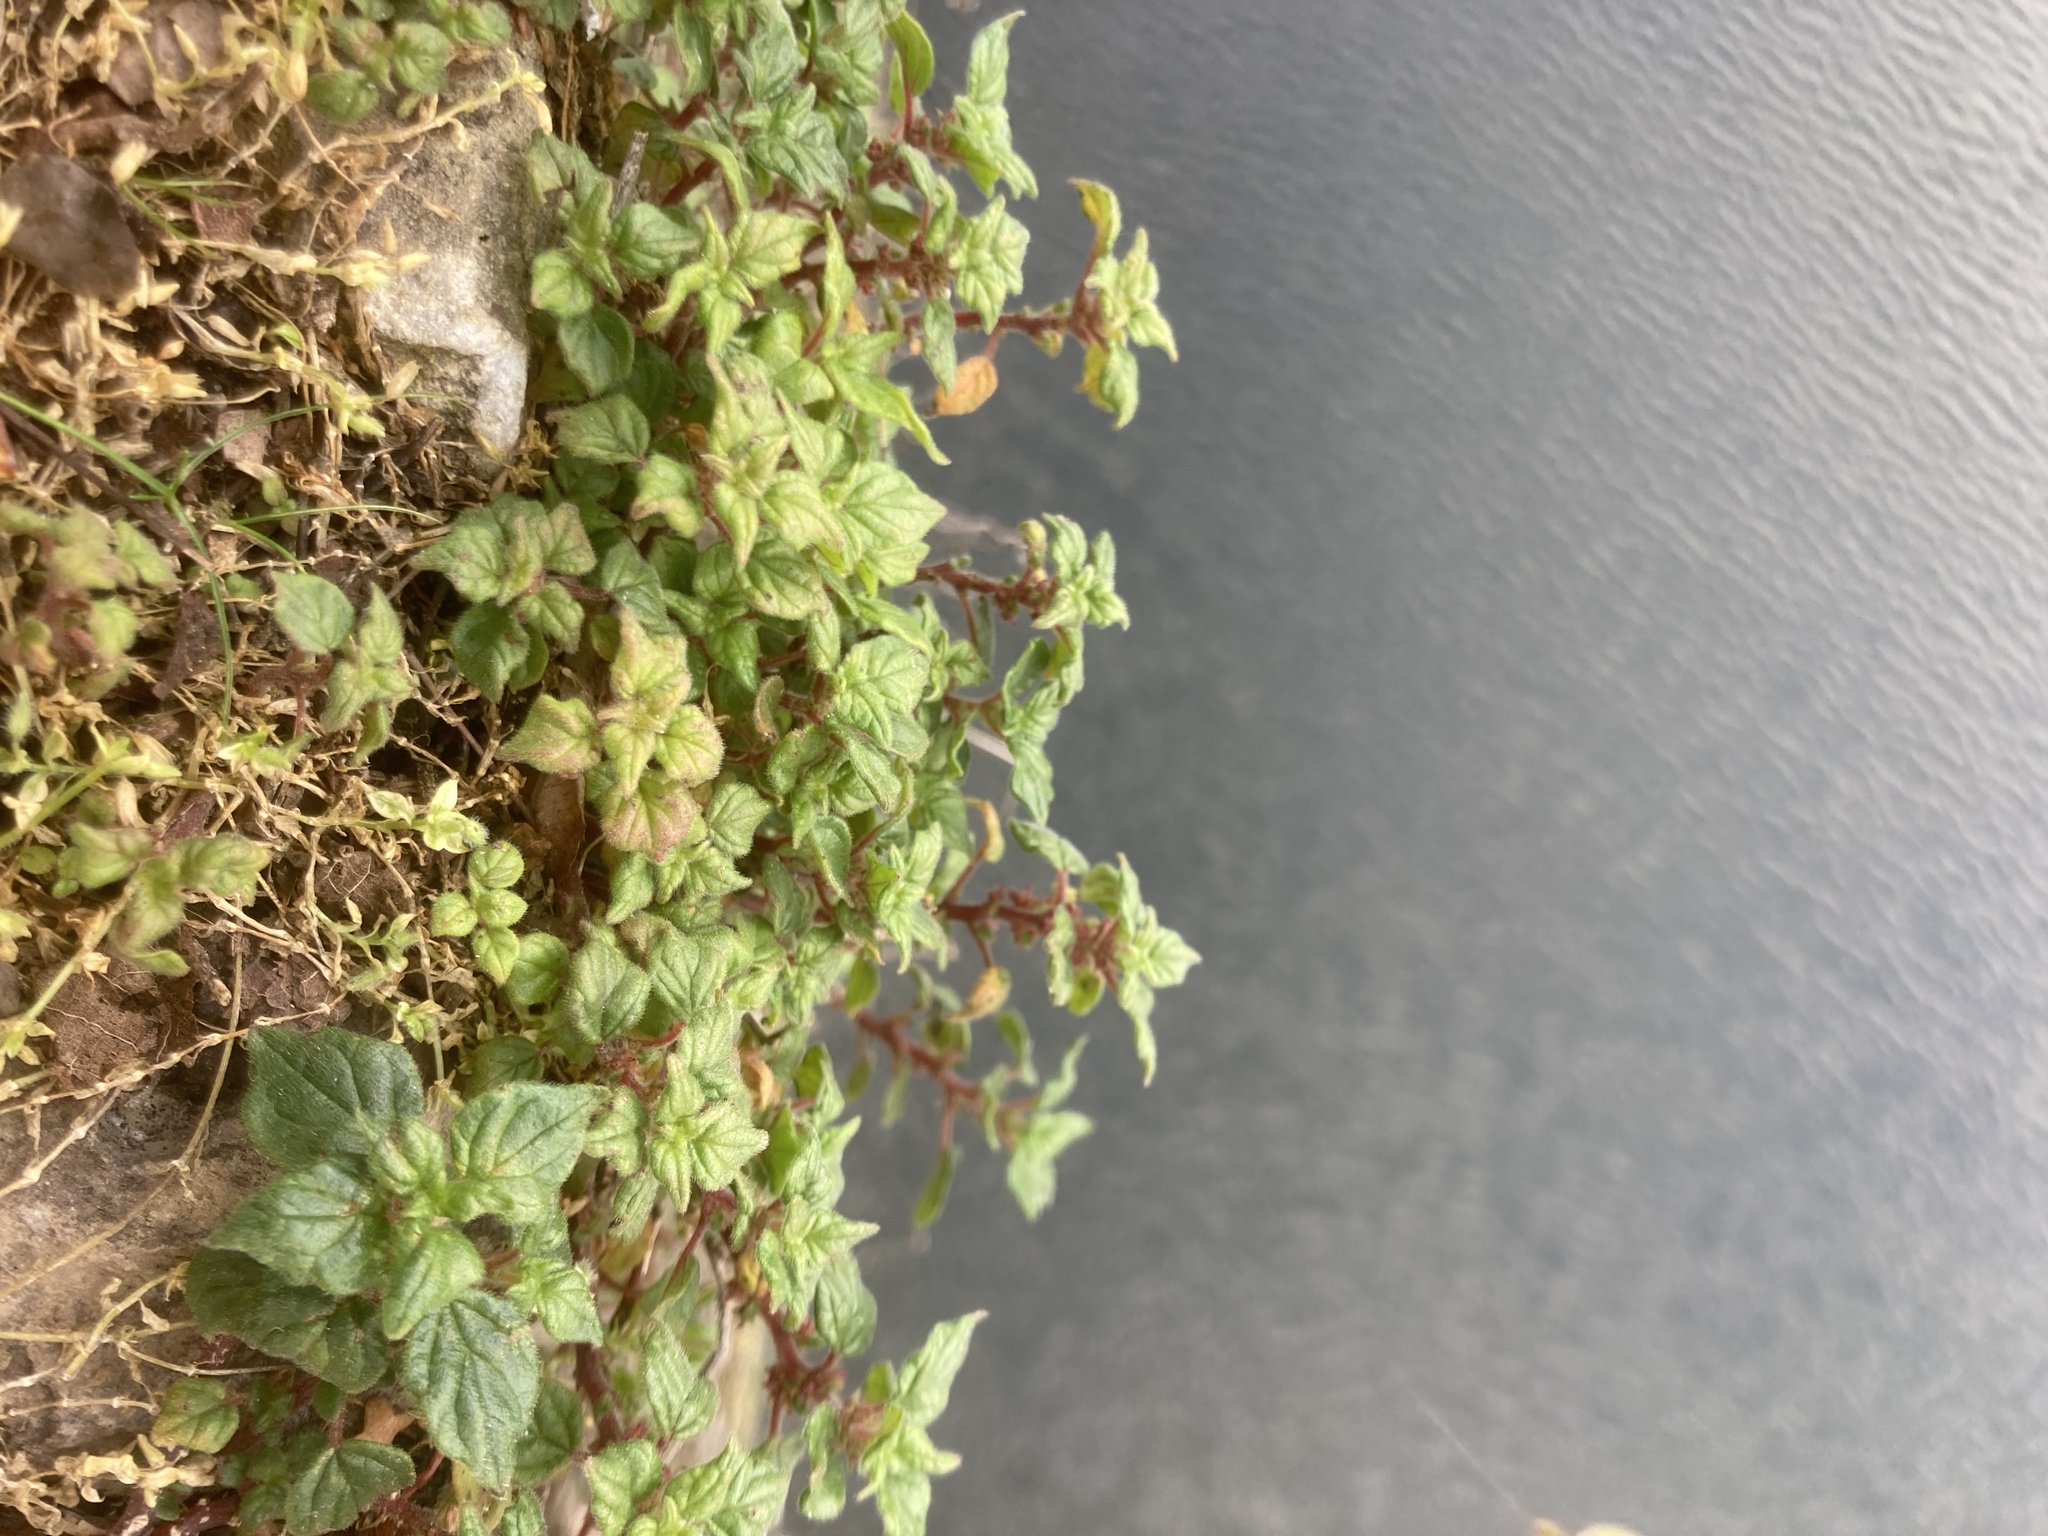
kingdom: Plantae
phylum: Tracheophyta
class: Magnoliopsida
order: Rosales
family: Urticaceae
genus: Parietaria
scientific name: Parietaria judaica
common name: Pellitory-of-the-wall
